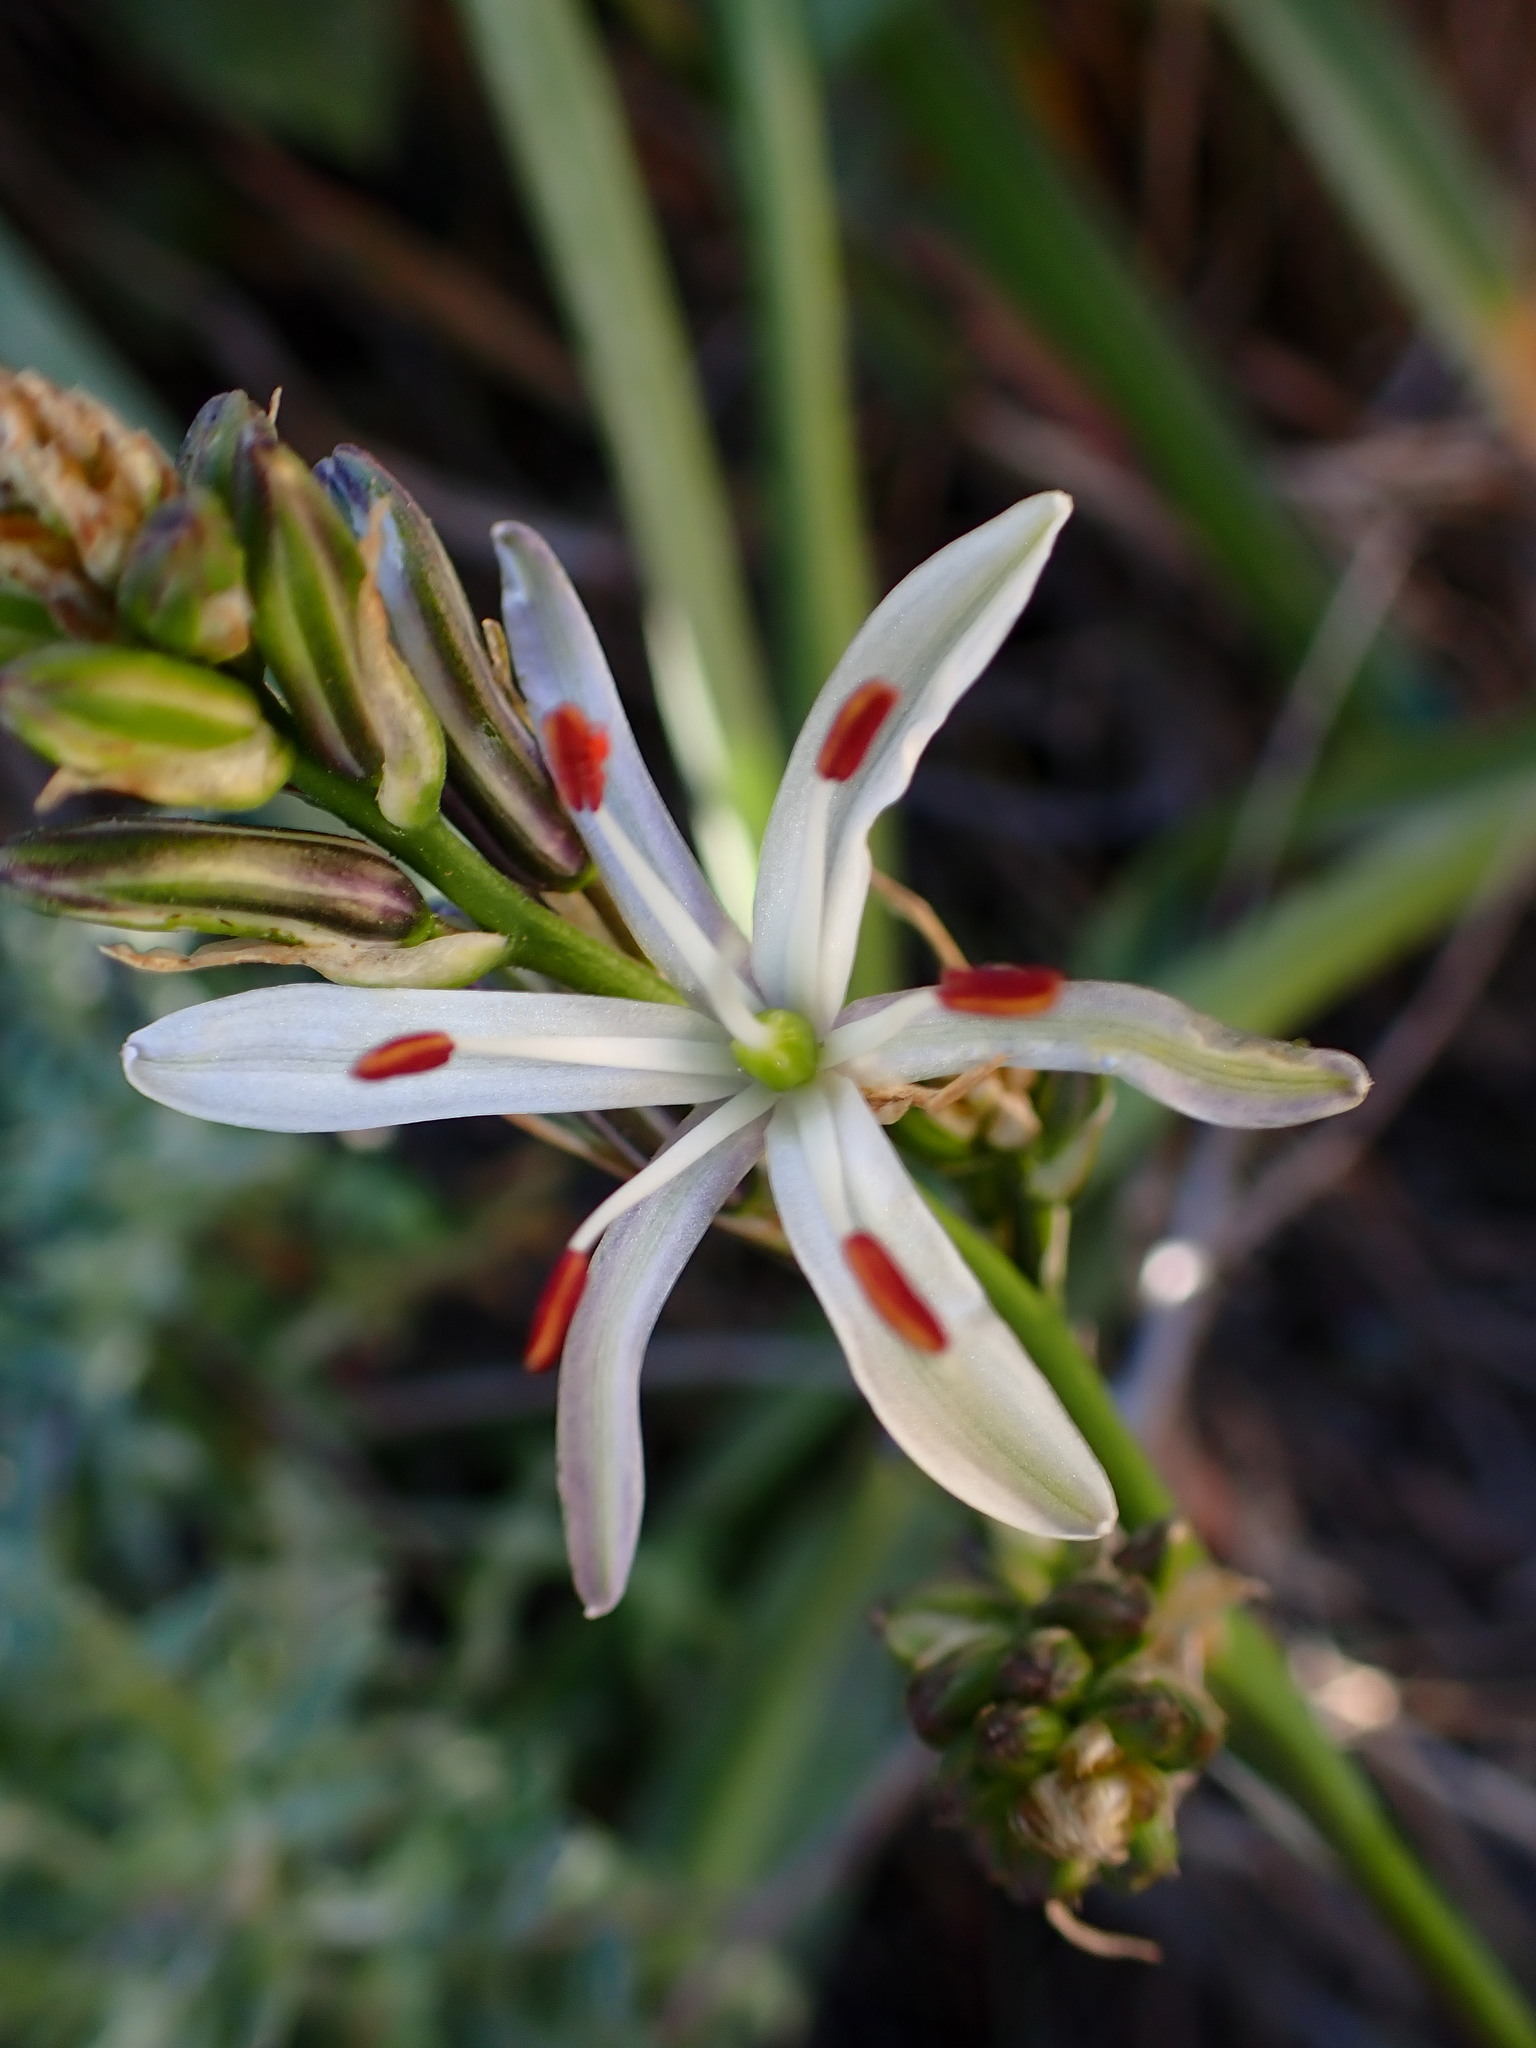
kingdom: Plantae
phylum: Tracheophyta
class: Liliopsida
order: Asparagales
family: Asparagaceae
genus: Chlorogalum
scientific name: Chlorogalum pomeridianum
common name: Amole
